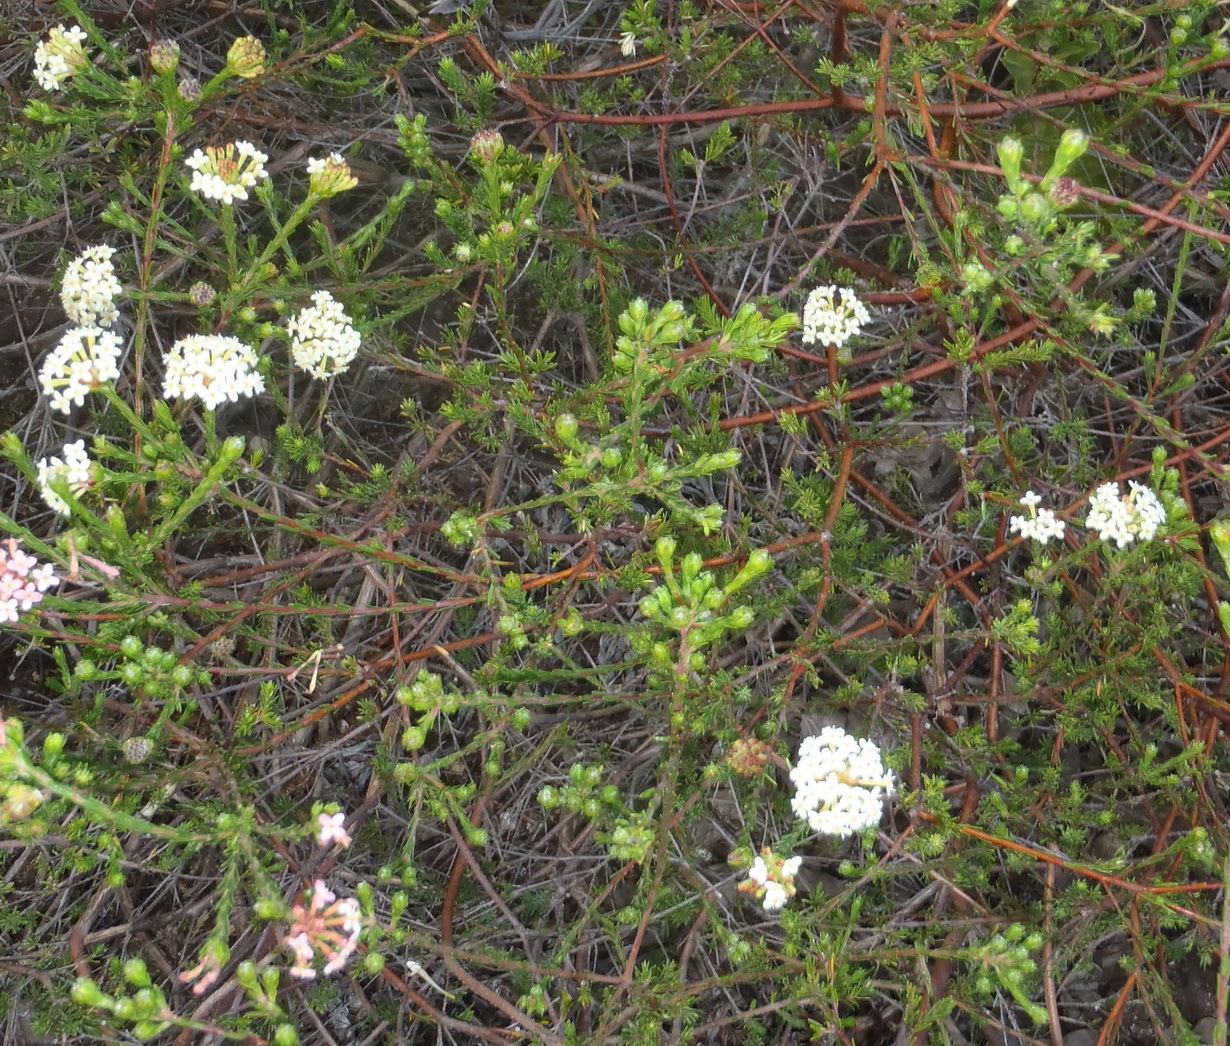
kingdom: Plantae
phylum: Tracheophyta
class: Magnoliopsida
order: Malvales
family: Thymelaeaceae
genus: Gnidia
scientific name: Gnidia squarrosa
